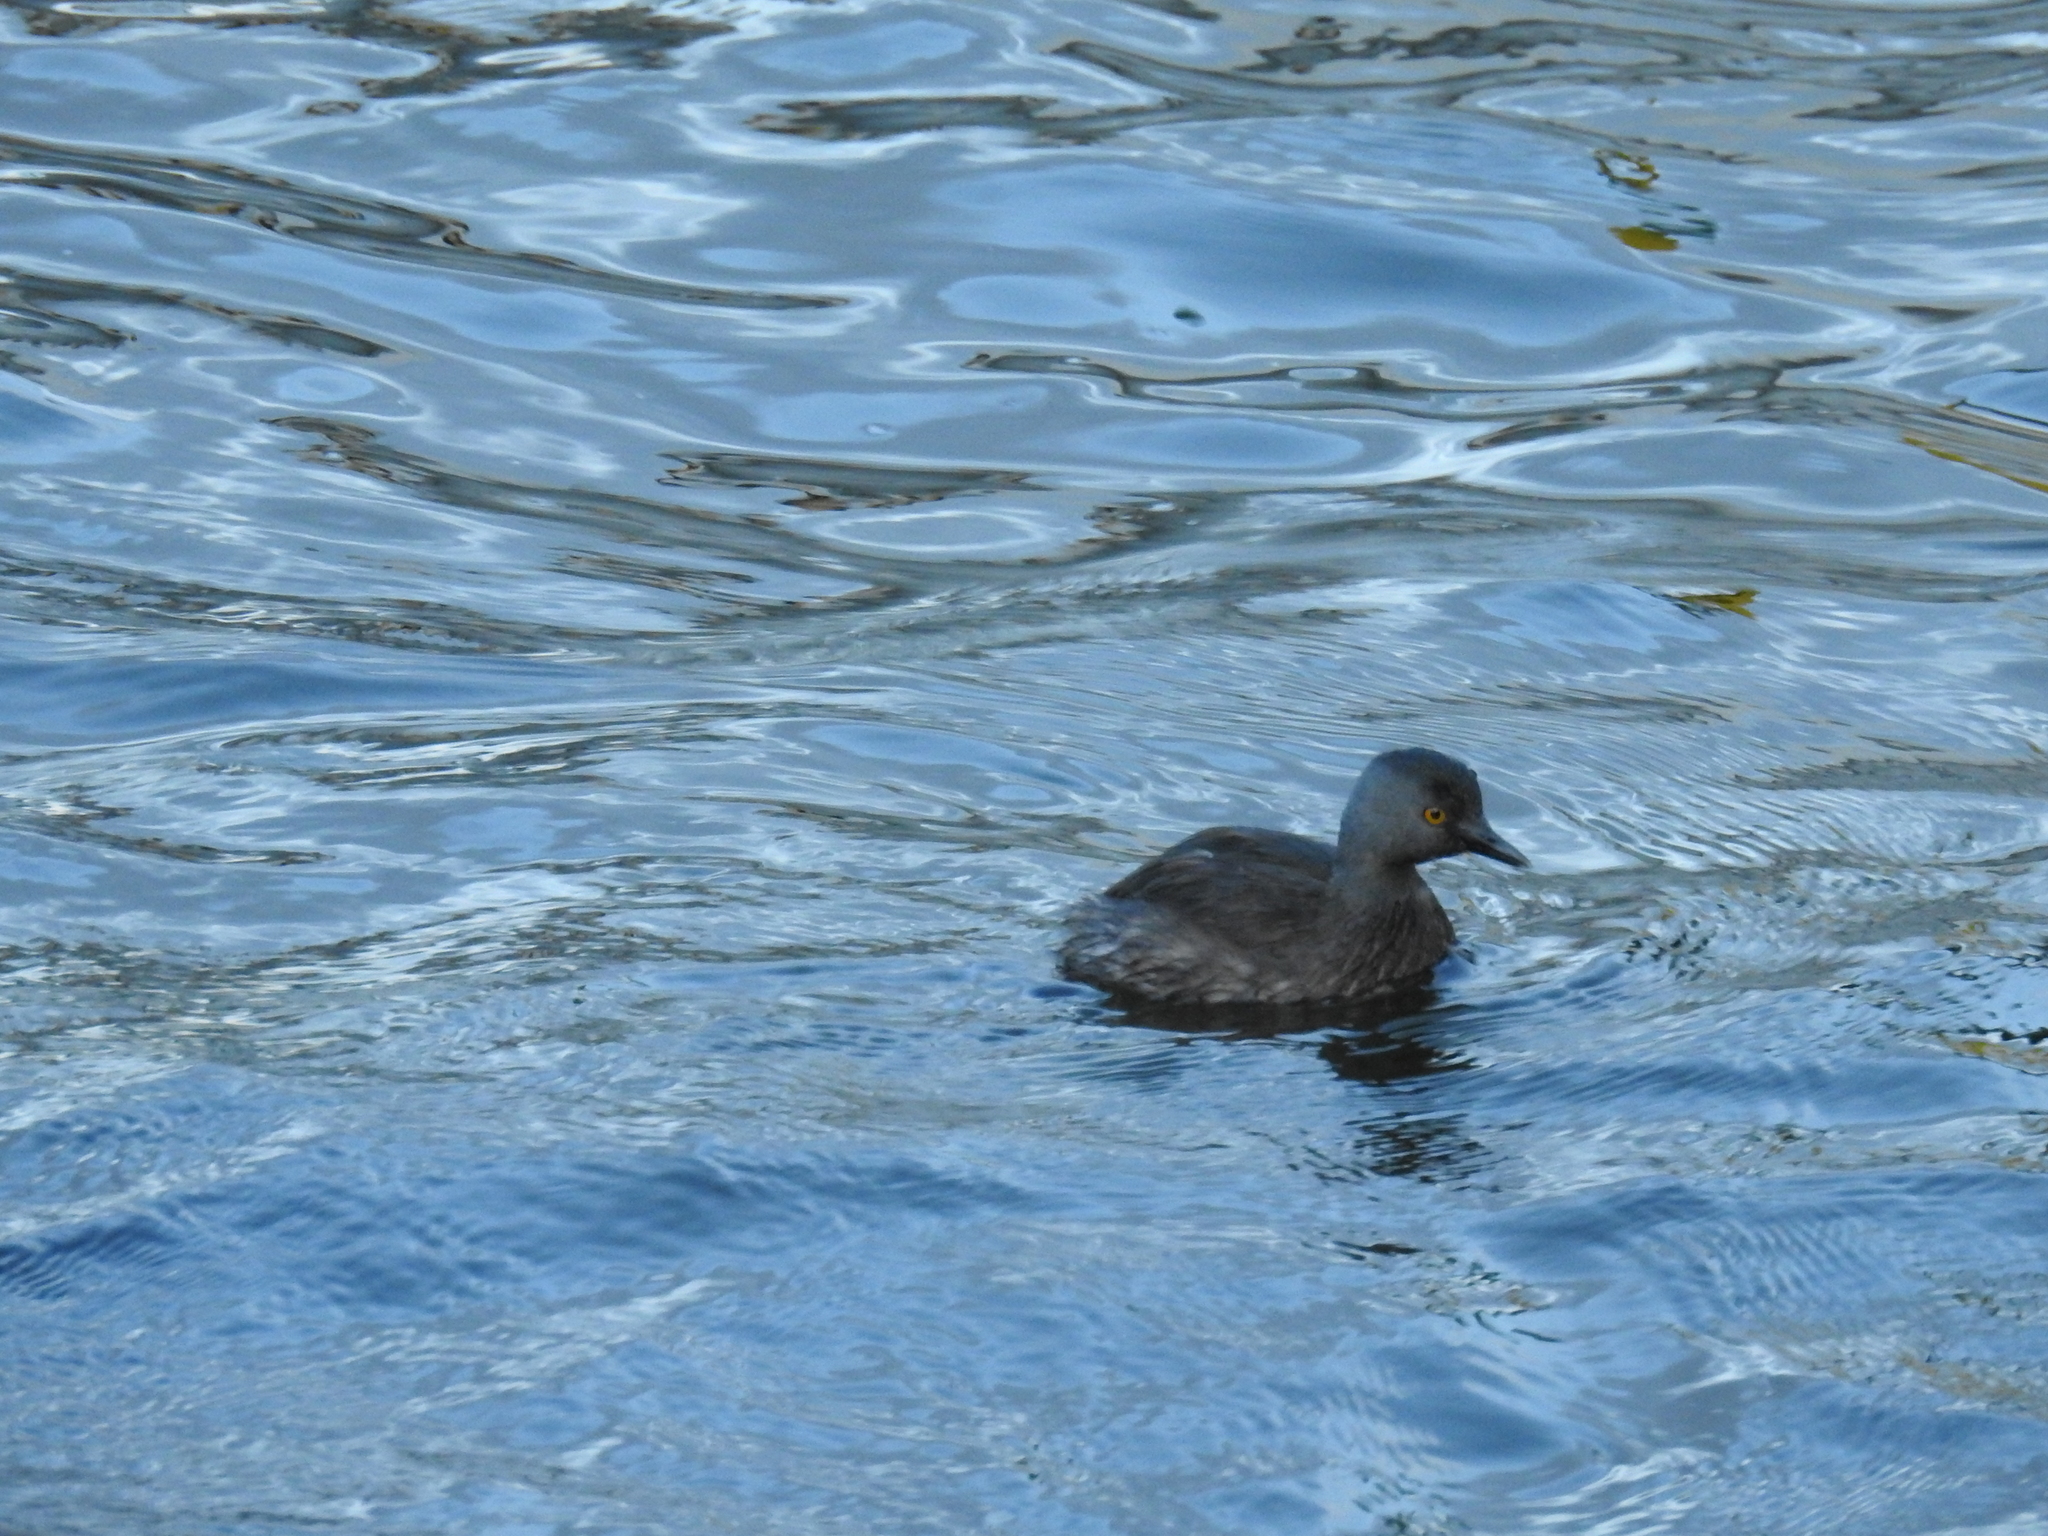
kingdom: Animalia
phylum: Chordata
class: Aves
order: Podicipediformes
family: Podicipedidae
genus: Tachybaptus
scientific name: Tachybaptus dominicus
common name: Least grebe
